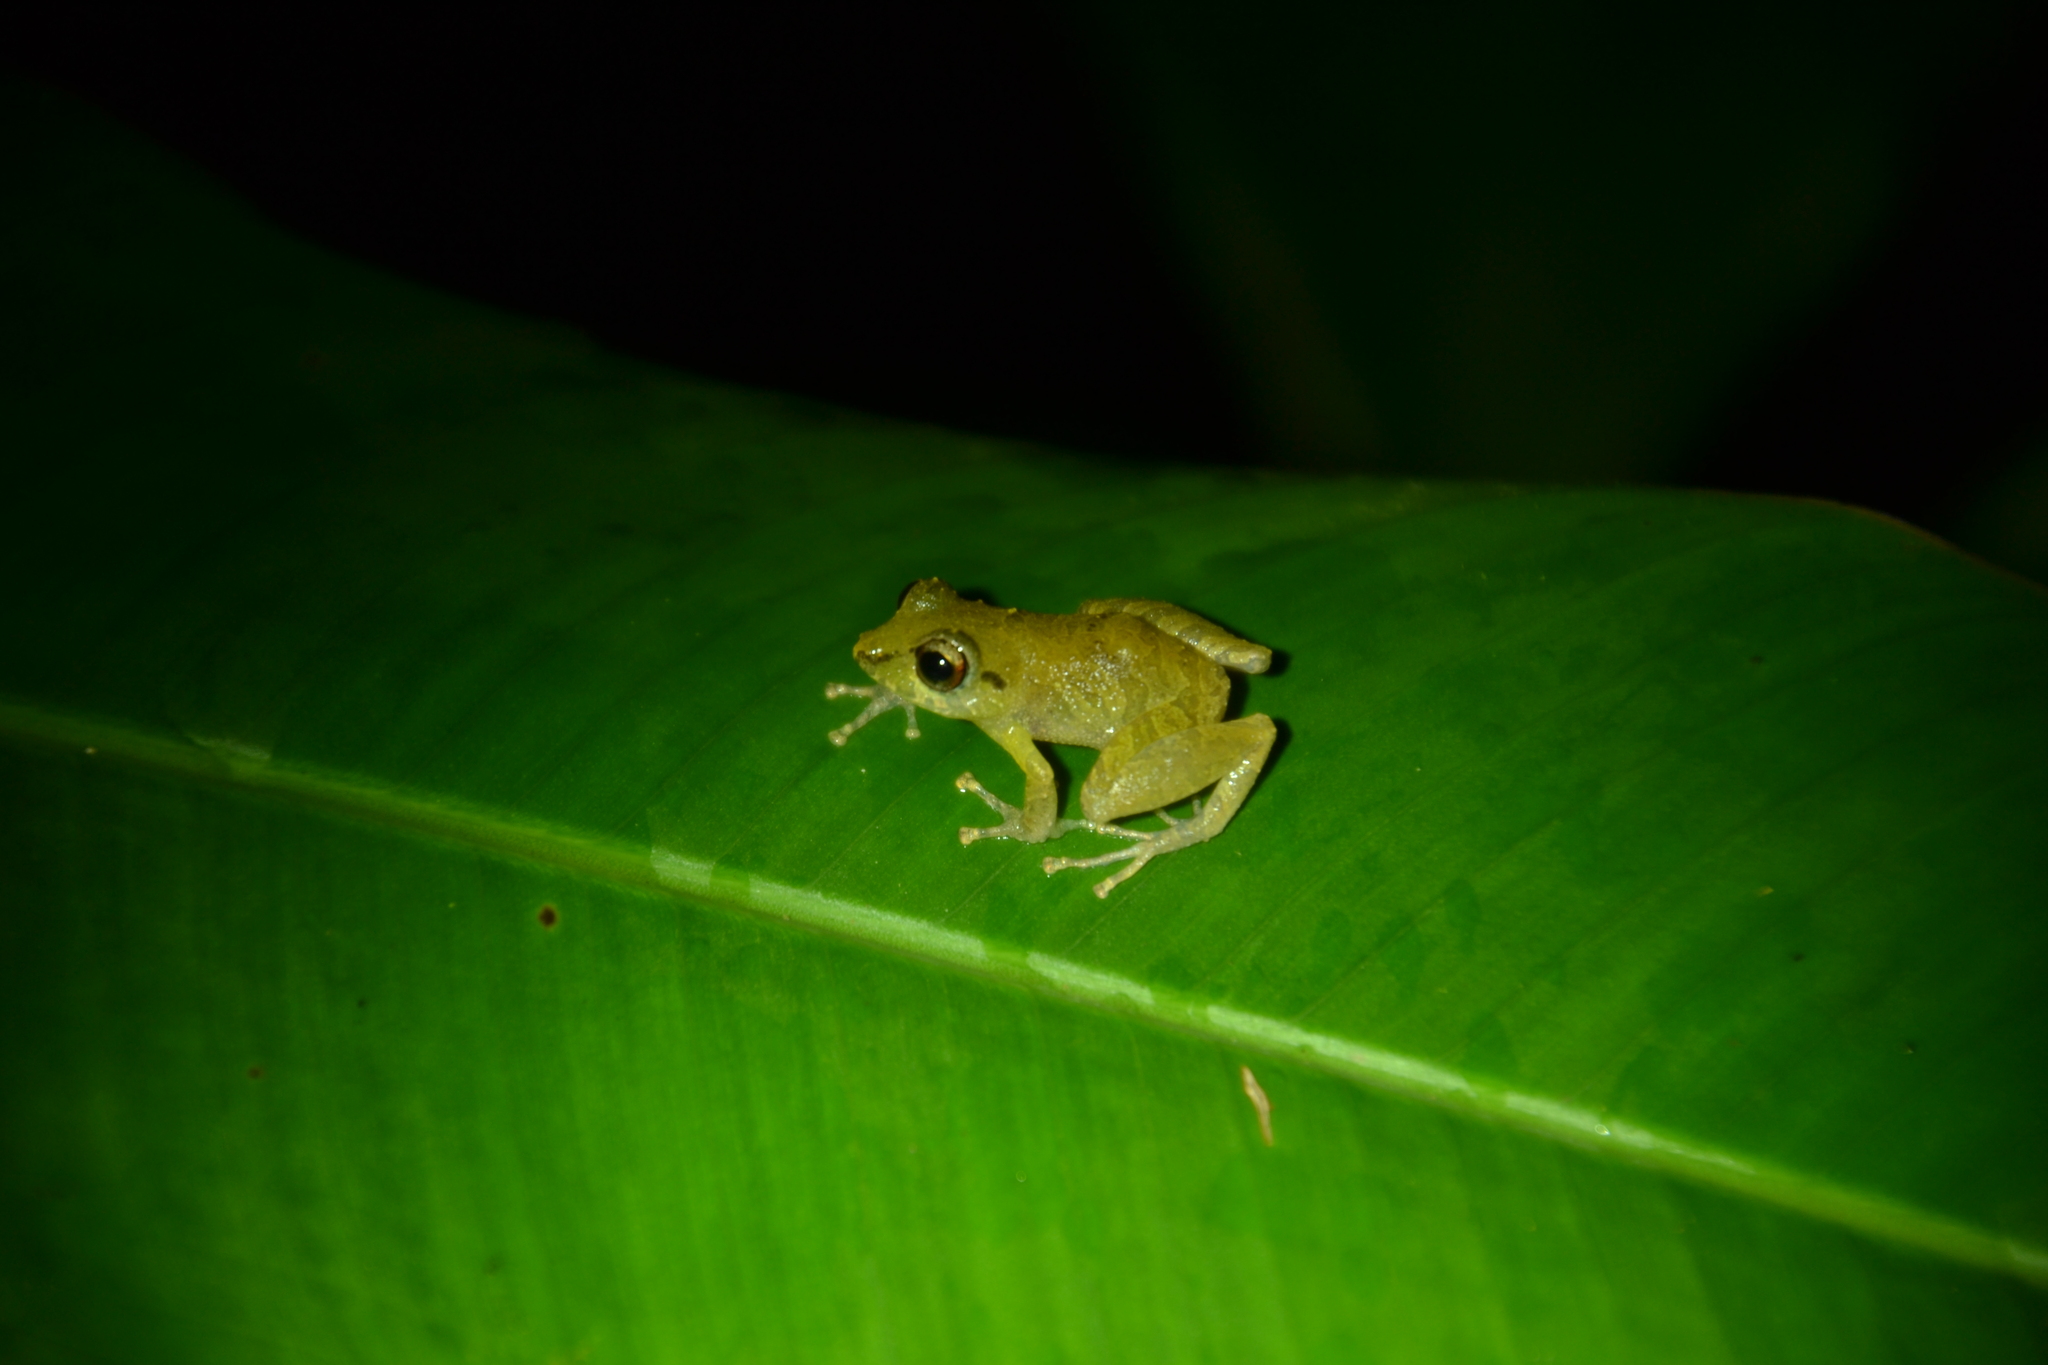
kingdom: Animalia
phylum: Chordata
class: Amphibia
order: Anura
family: Craugastoridae
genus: Pristimantis
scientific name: Pristimantis ridens
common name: Rio san juan robber frog
